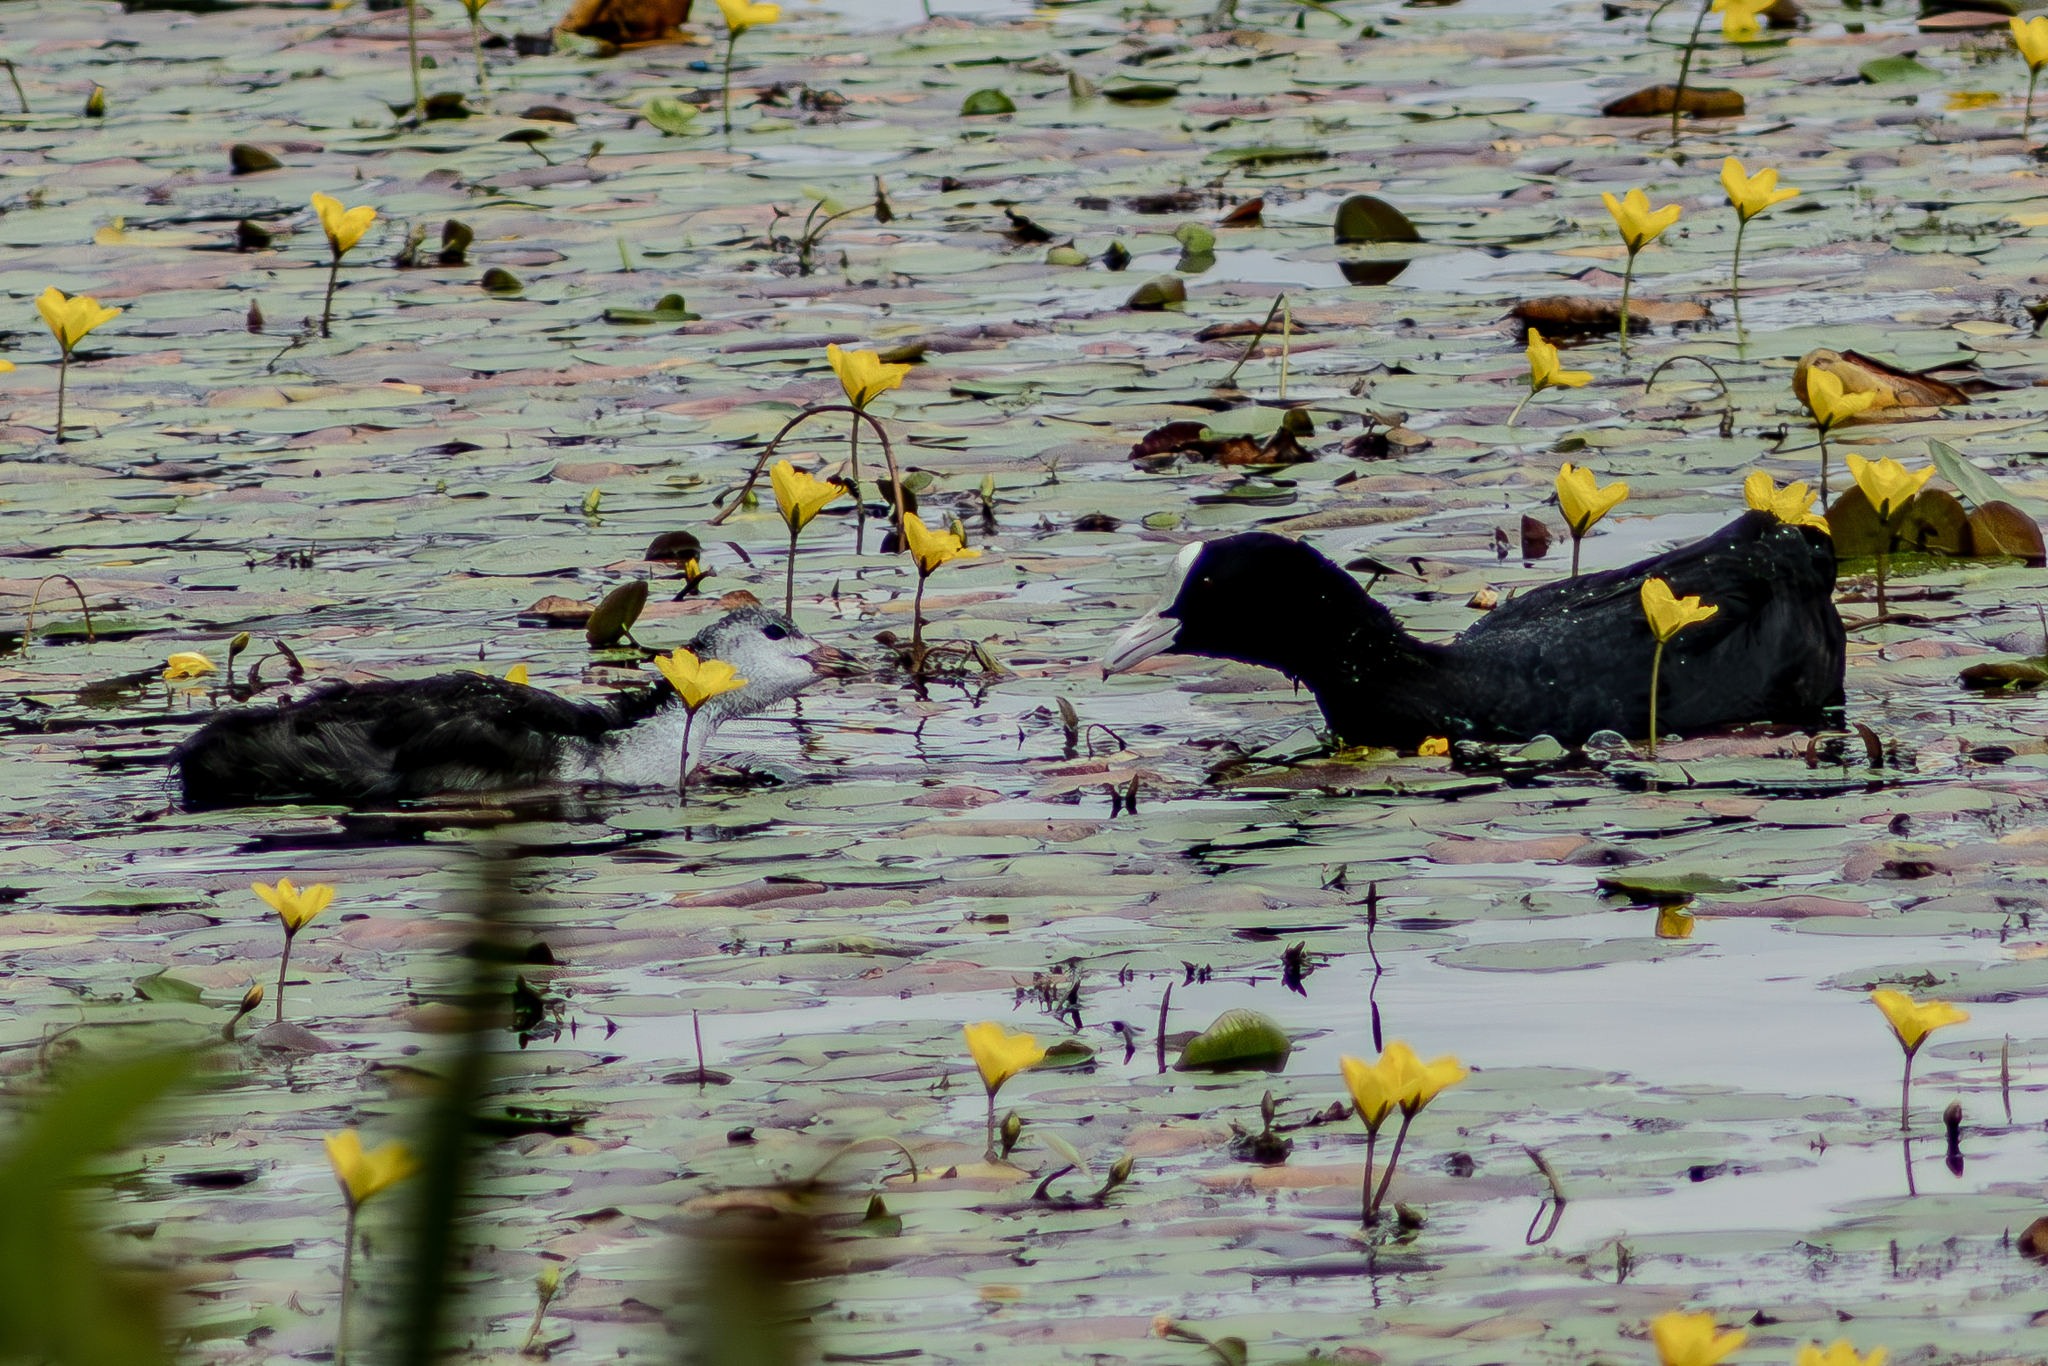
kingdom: Animalia
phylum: Chordata
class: Aves
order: Gruiformes
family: Rallidae
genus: Fulica
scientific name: Fulica atra
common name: Eurasian coot
